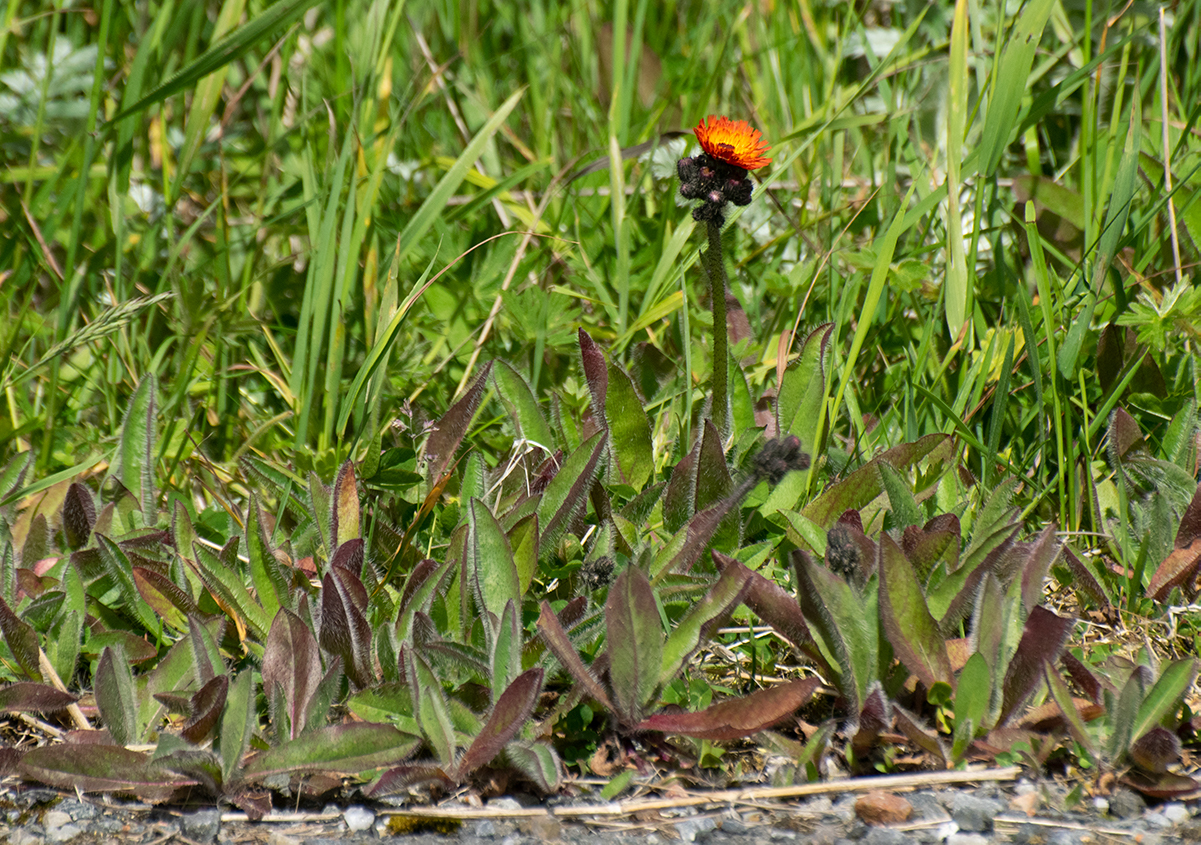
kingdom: Plantae
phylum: Tracheophyta
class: Magnoliopsida
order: Asterales
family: Asteraceae
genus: Pilosella
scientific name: Pilosella aurantiaca
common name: Fox-and-cubs
